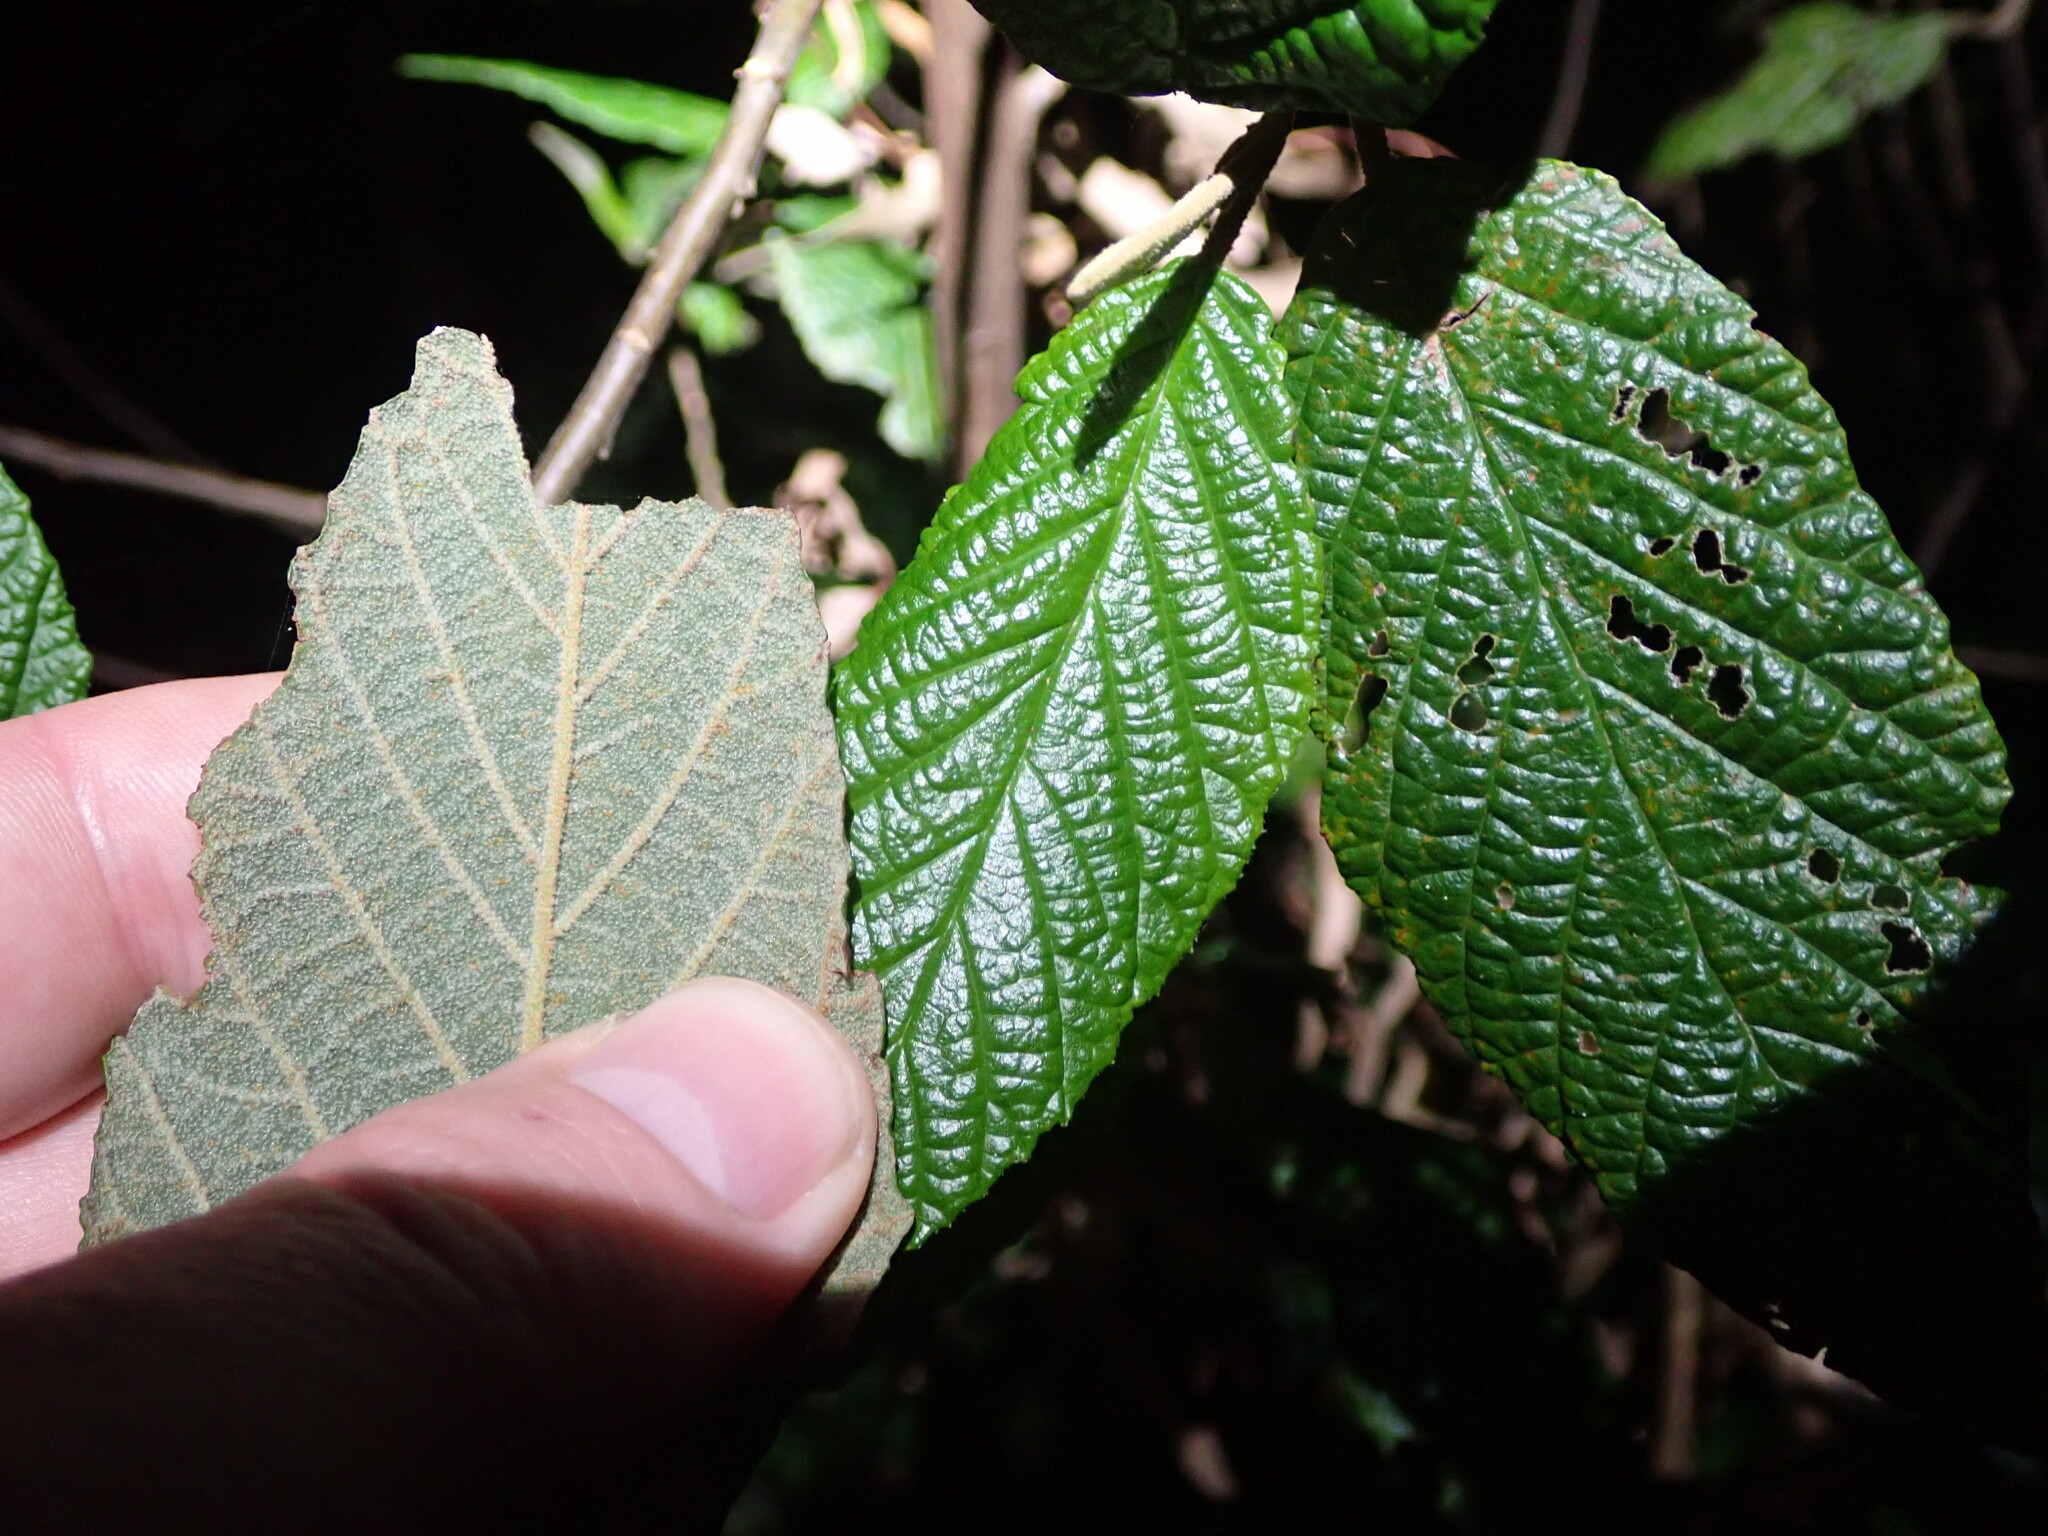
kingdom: Plantae
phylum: Tracheophyta
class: Magnoliopsida
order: Rosales
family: Rhamnaceae
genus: Pomaderris
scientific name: Pomaderris aspera
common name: Hazel pomaderris
